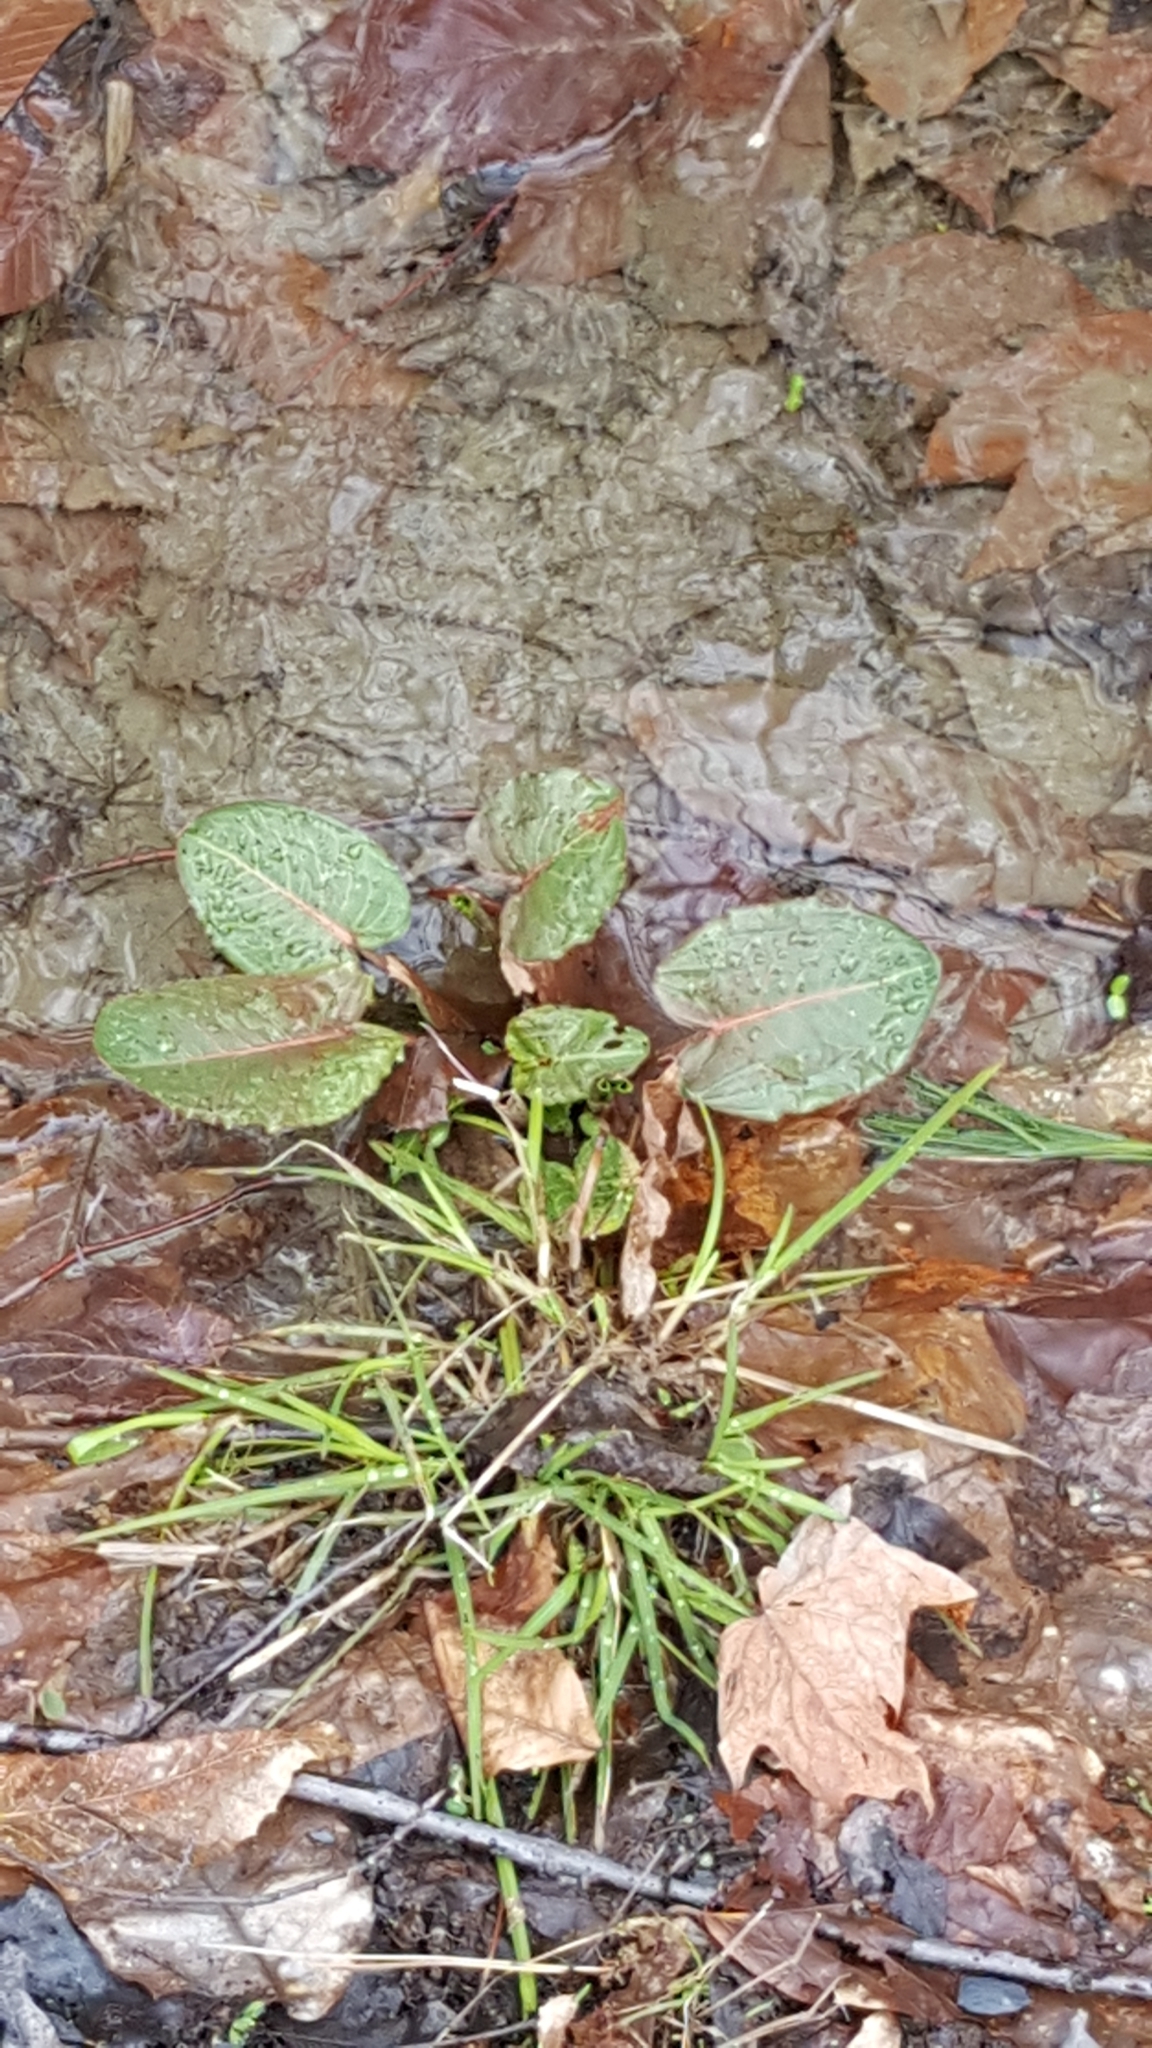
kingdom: Plantae
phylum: Tracheophyta
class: Magnoliopsida
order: Caryophyllales
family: Polygonaceae
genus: Rumex
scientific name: Rumex obtusifolius
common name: Bitter dock
